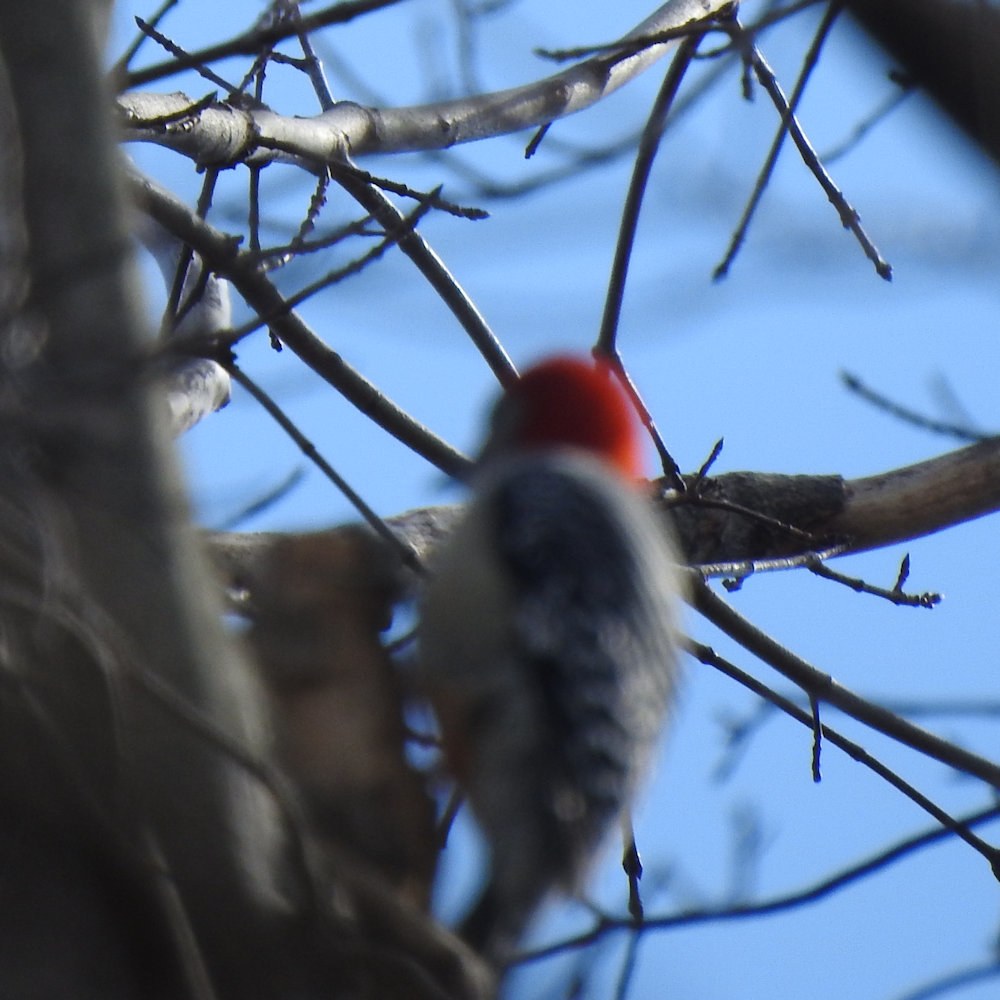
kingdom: Animalia
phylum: Chordata
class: Aves
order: Piciformes
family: Picidae
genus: Melanerpes
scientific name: Melanerpes carolinus
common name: Red-bellied woodpecker
